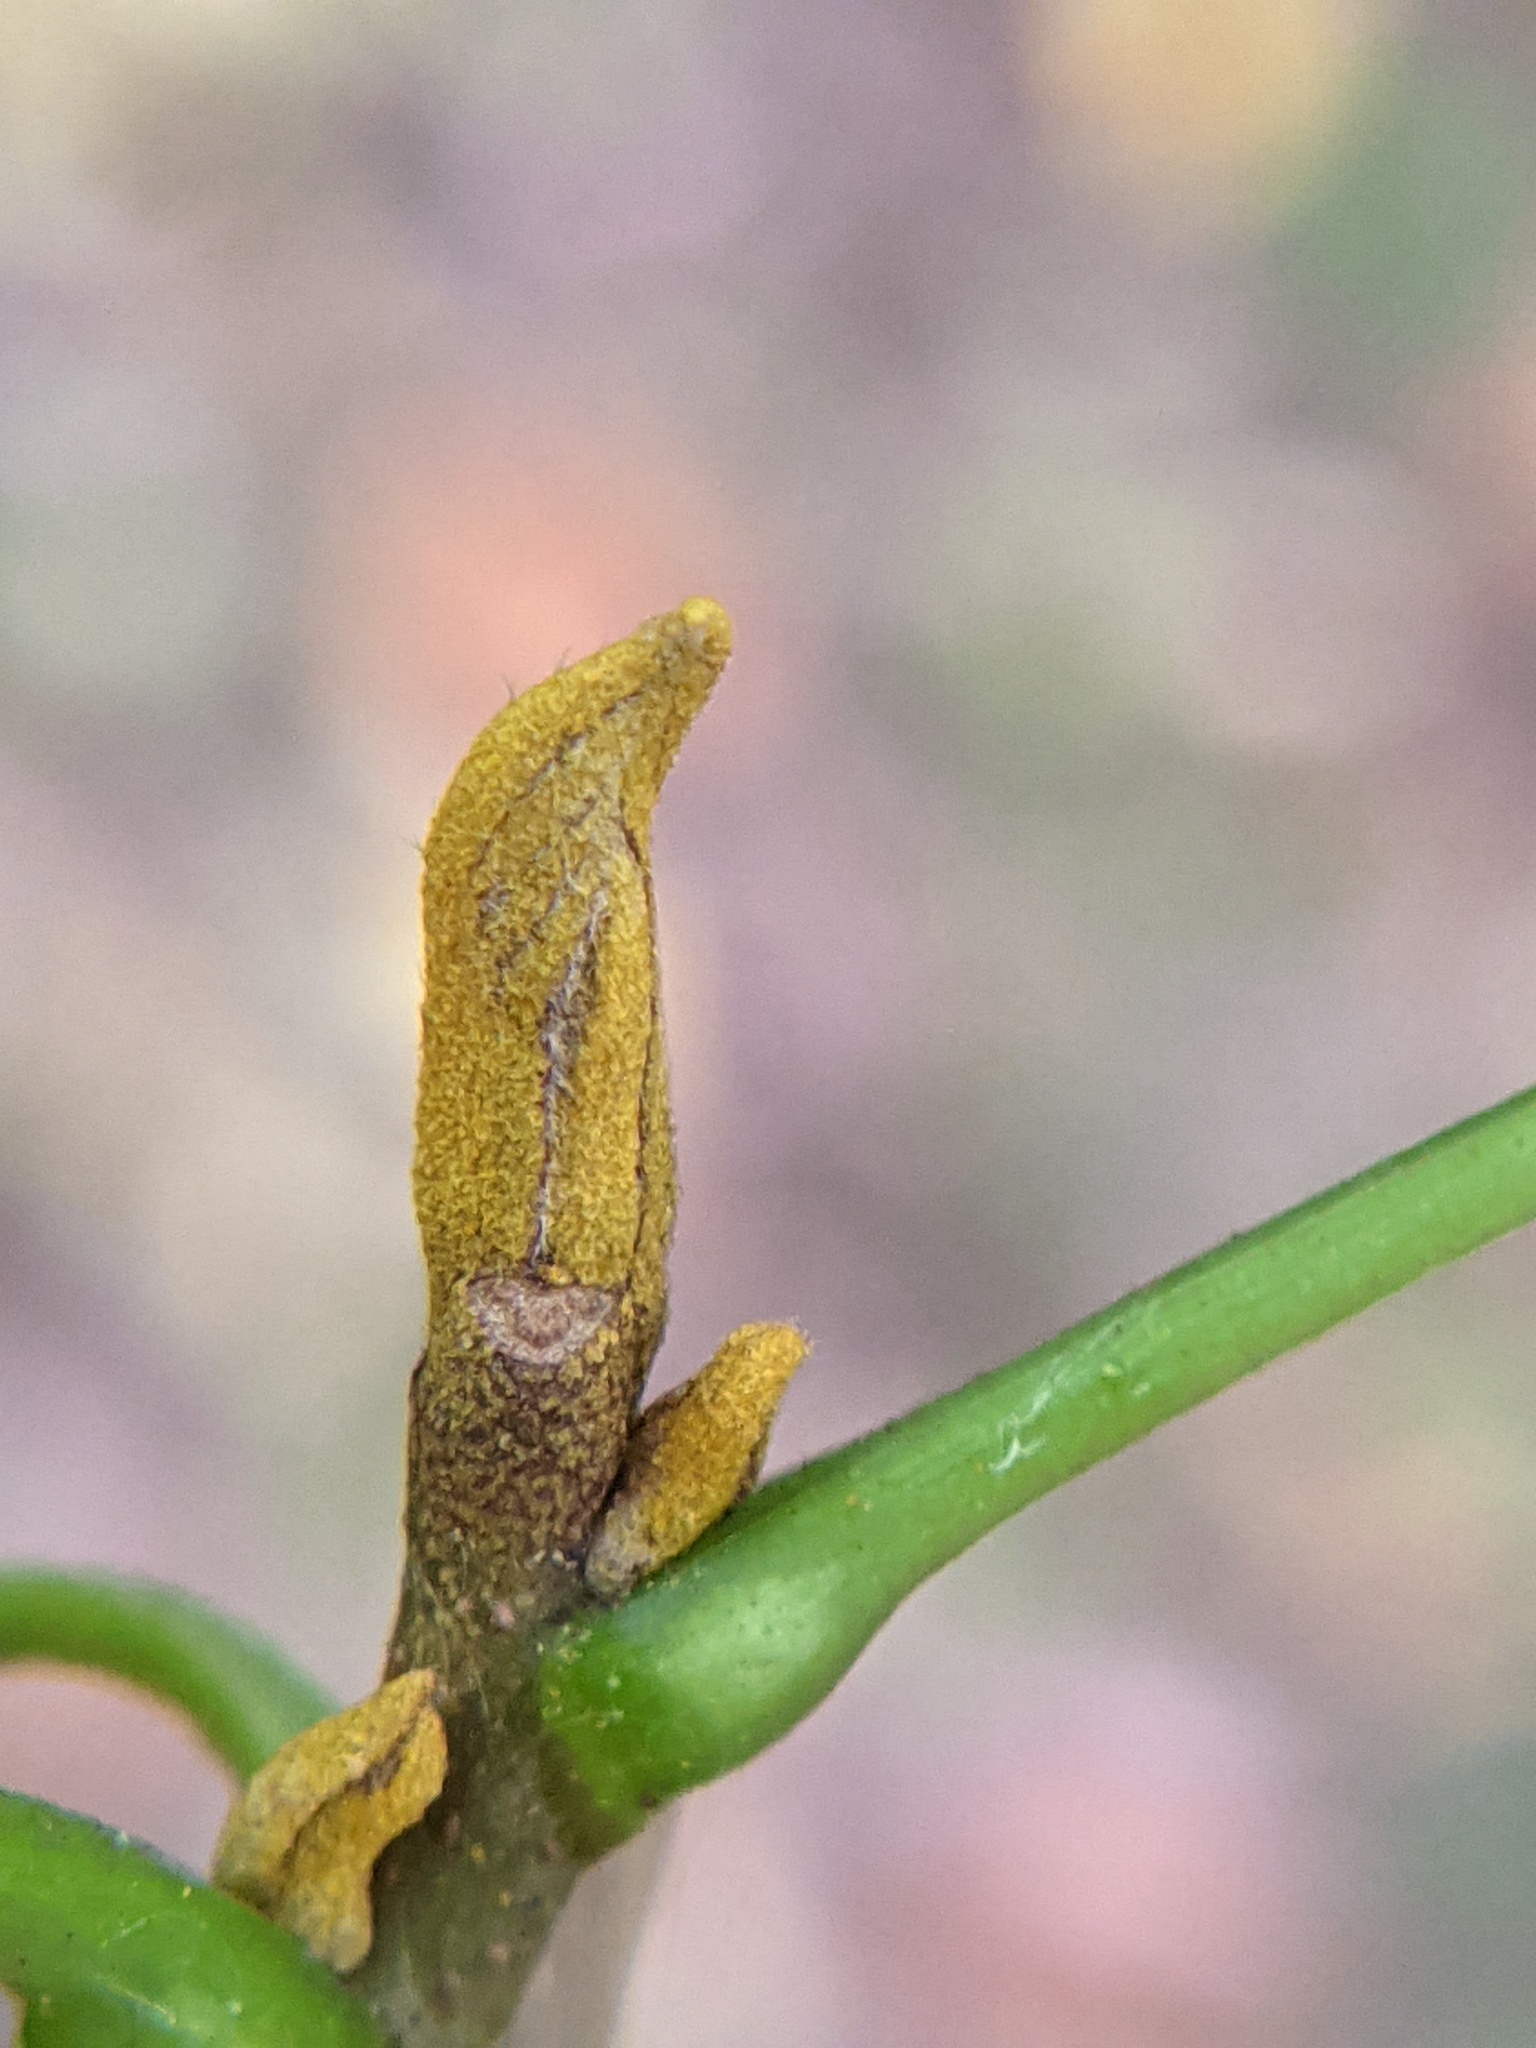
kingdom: Plantae
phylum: Tracheophyta
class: Magnoliopsida
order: Fagales
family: Juglandaceae
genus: Carya
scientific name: Carya cordiformis
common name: Bitternut hickory
